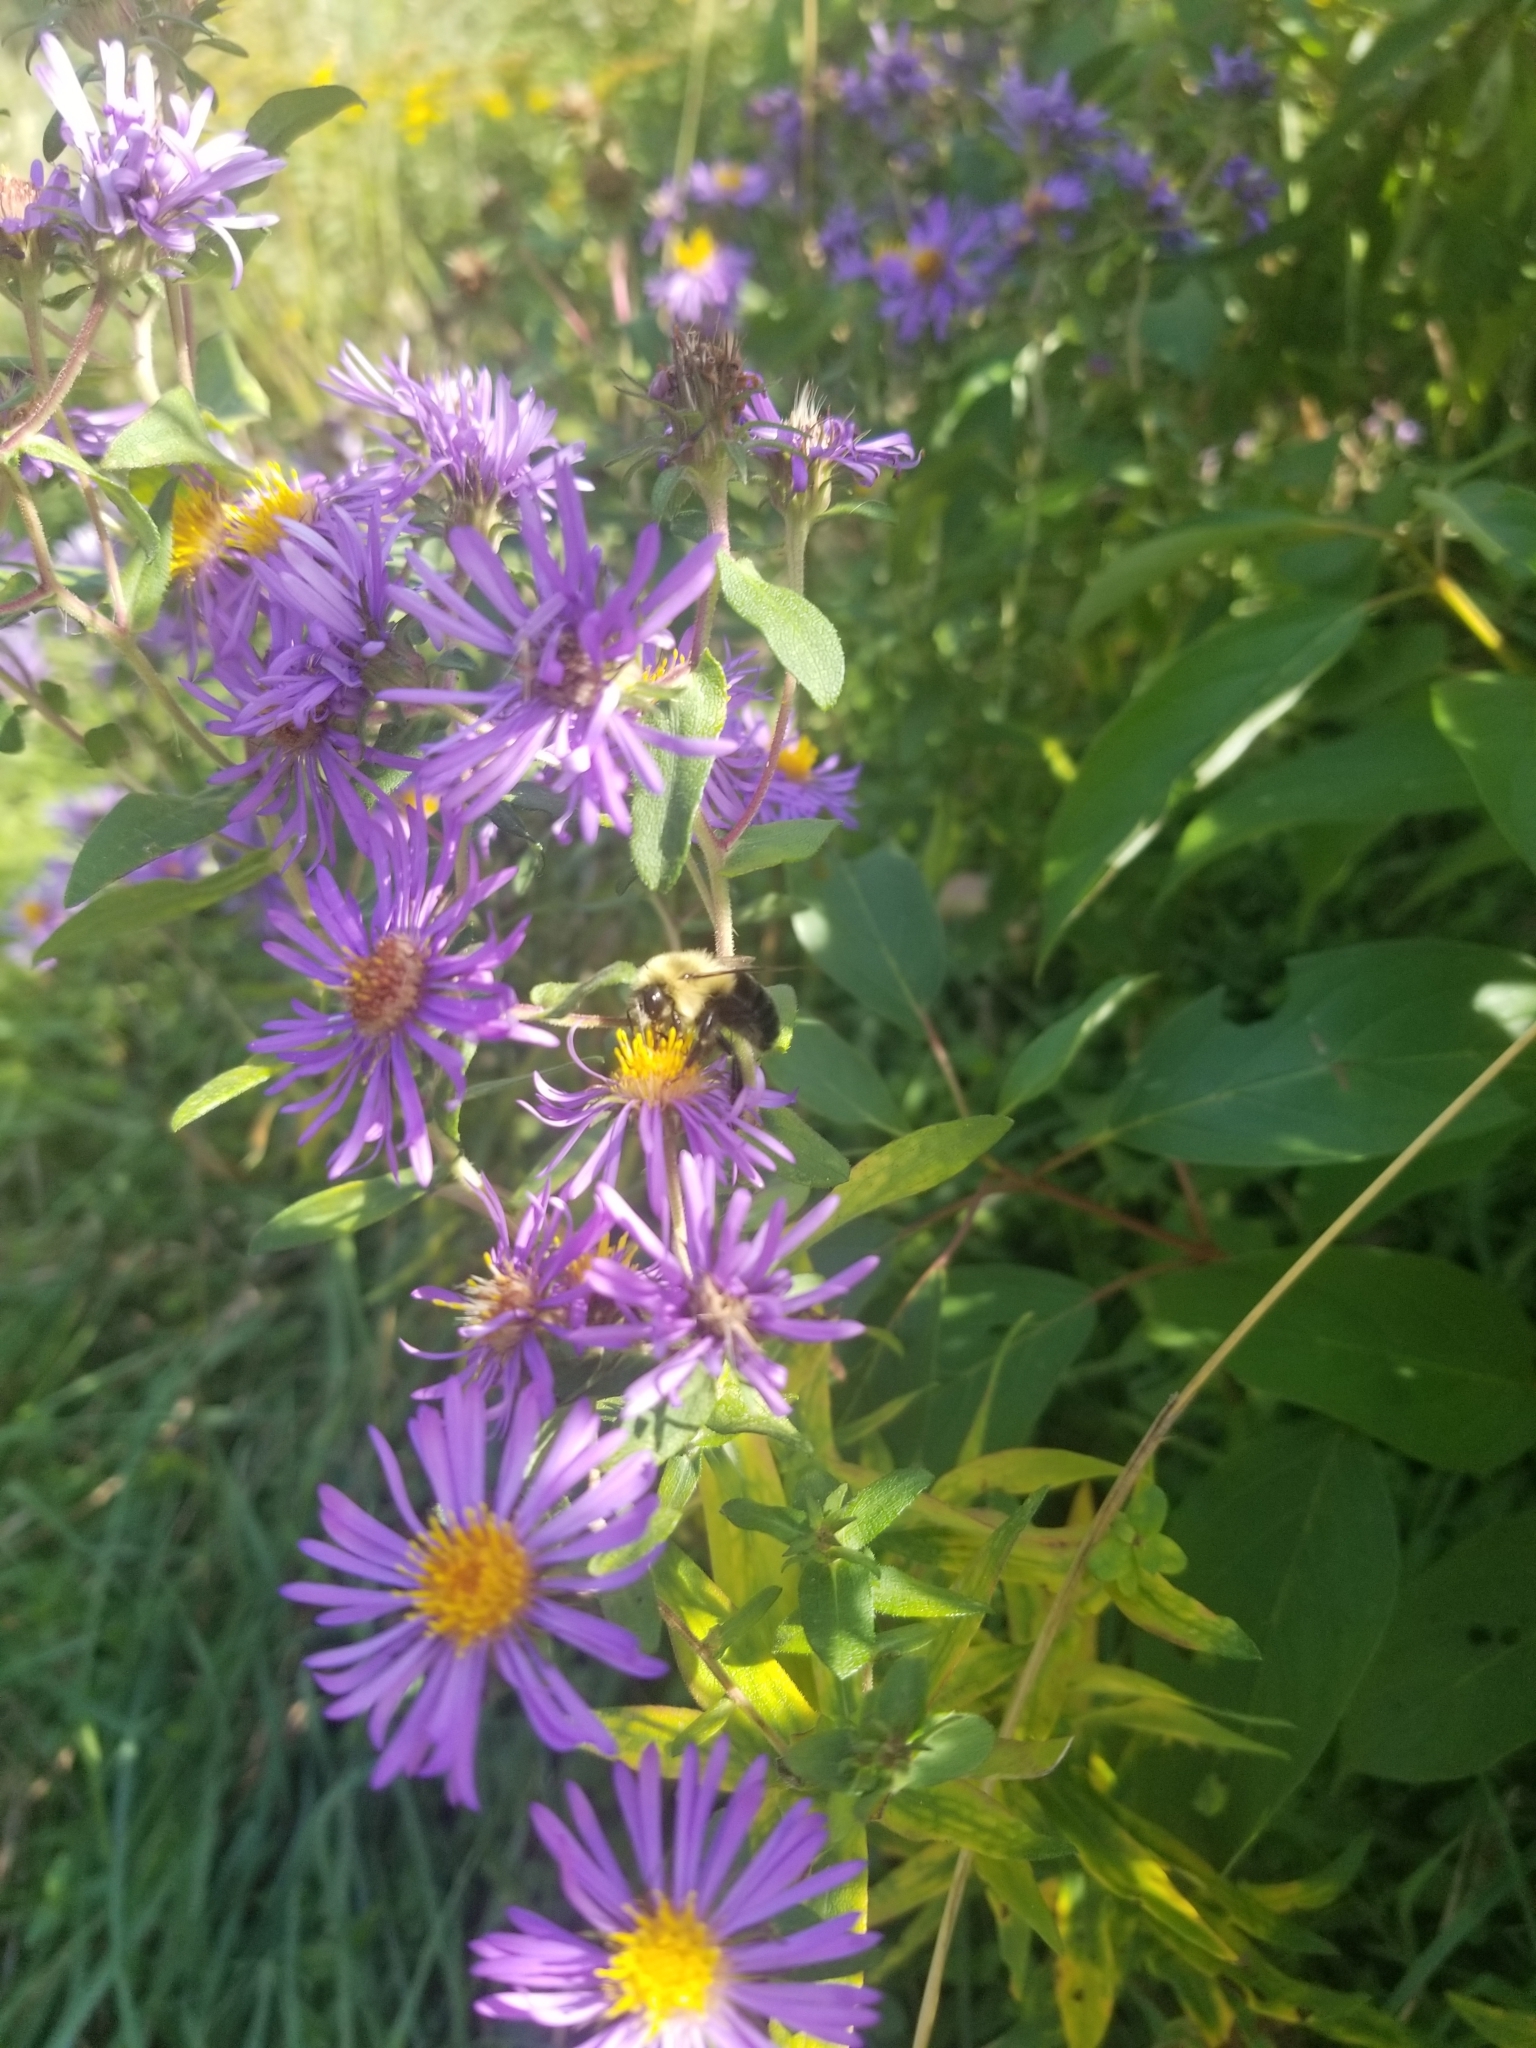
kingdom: Animalia
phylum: Arthropoda
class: Insecta
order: Hymenoptera
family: Apidae
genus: Bombus
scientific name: Bombus impatiens
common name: Common eastern bumble bee
